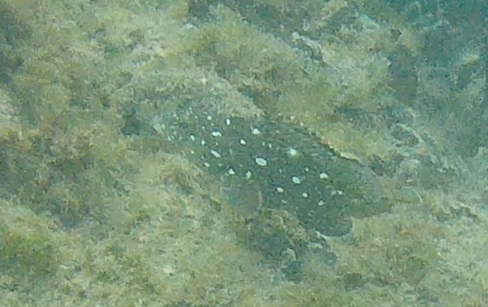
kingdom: Animalia
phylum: Chordata
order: Perciformes
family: Serranidae
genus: Epinephelus
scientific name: Epinephelus labriformis
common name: Flag cabrilla
